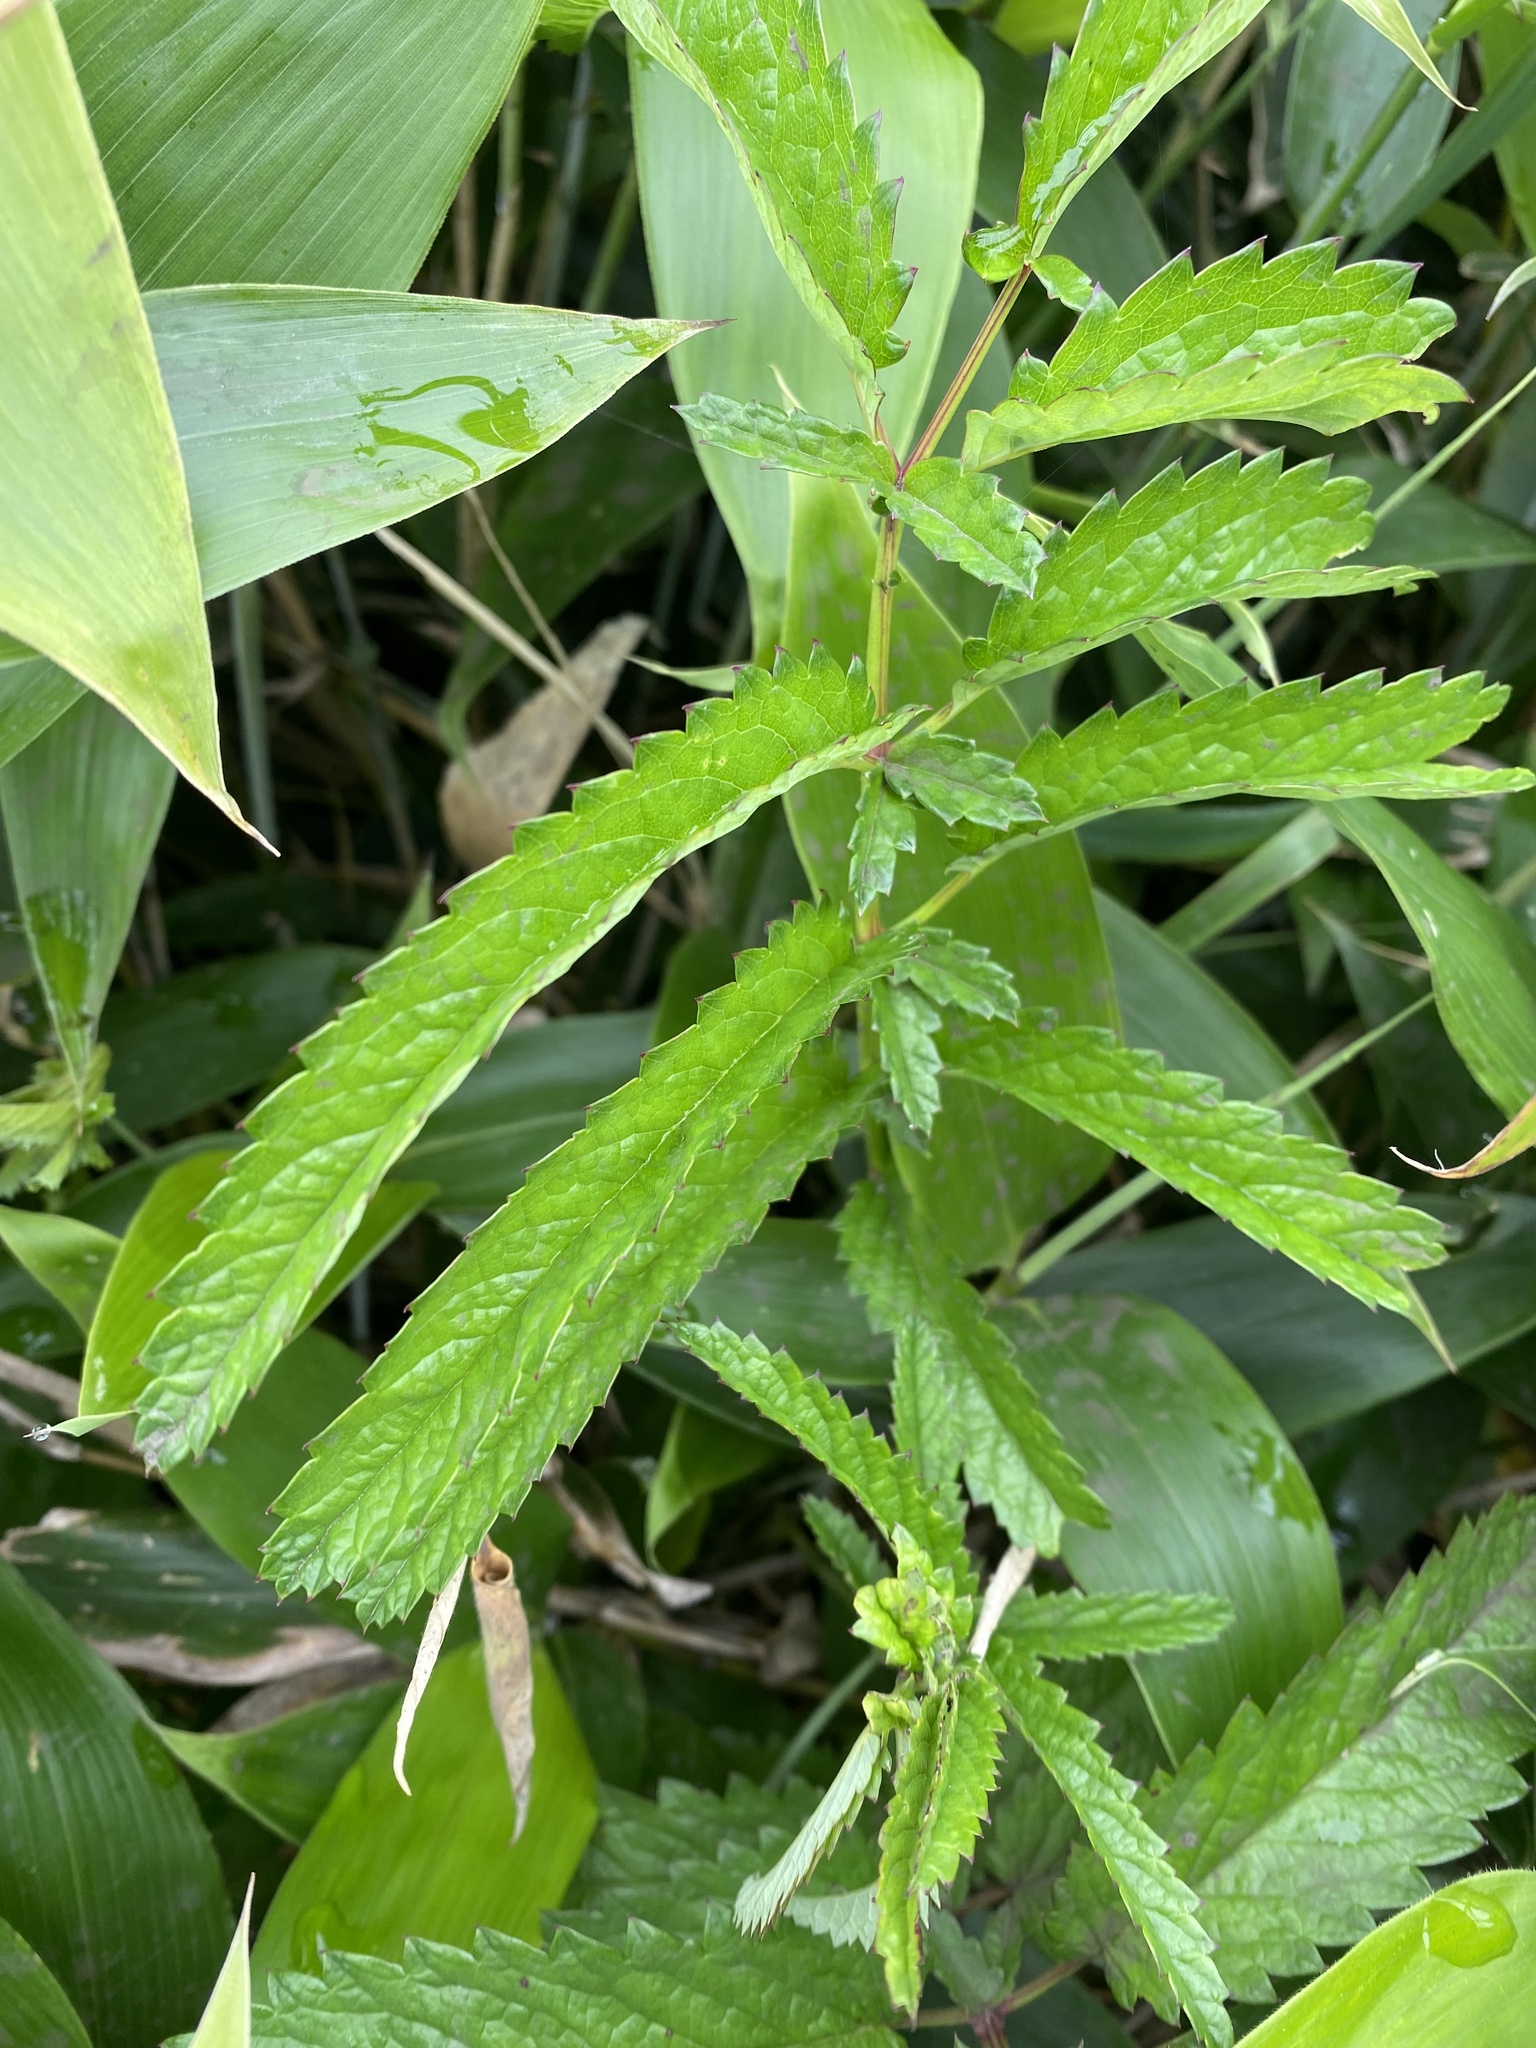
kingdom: Plantae
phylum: Tracheophyta
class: Magnoliopsida
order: Rosales
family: Rosaceae
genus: Poterium
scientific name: Poterium tenuifolium
